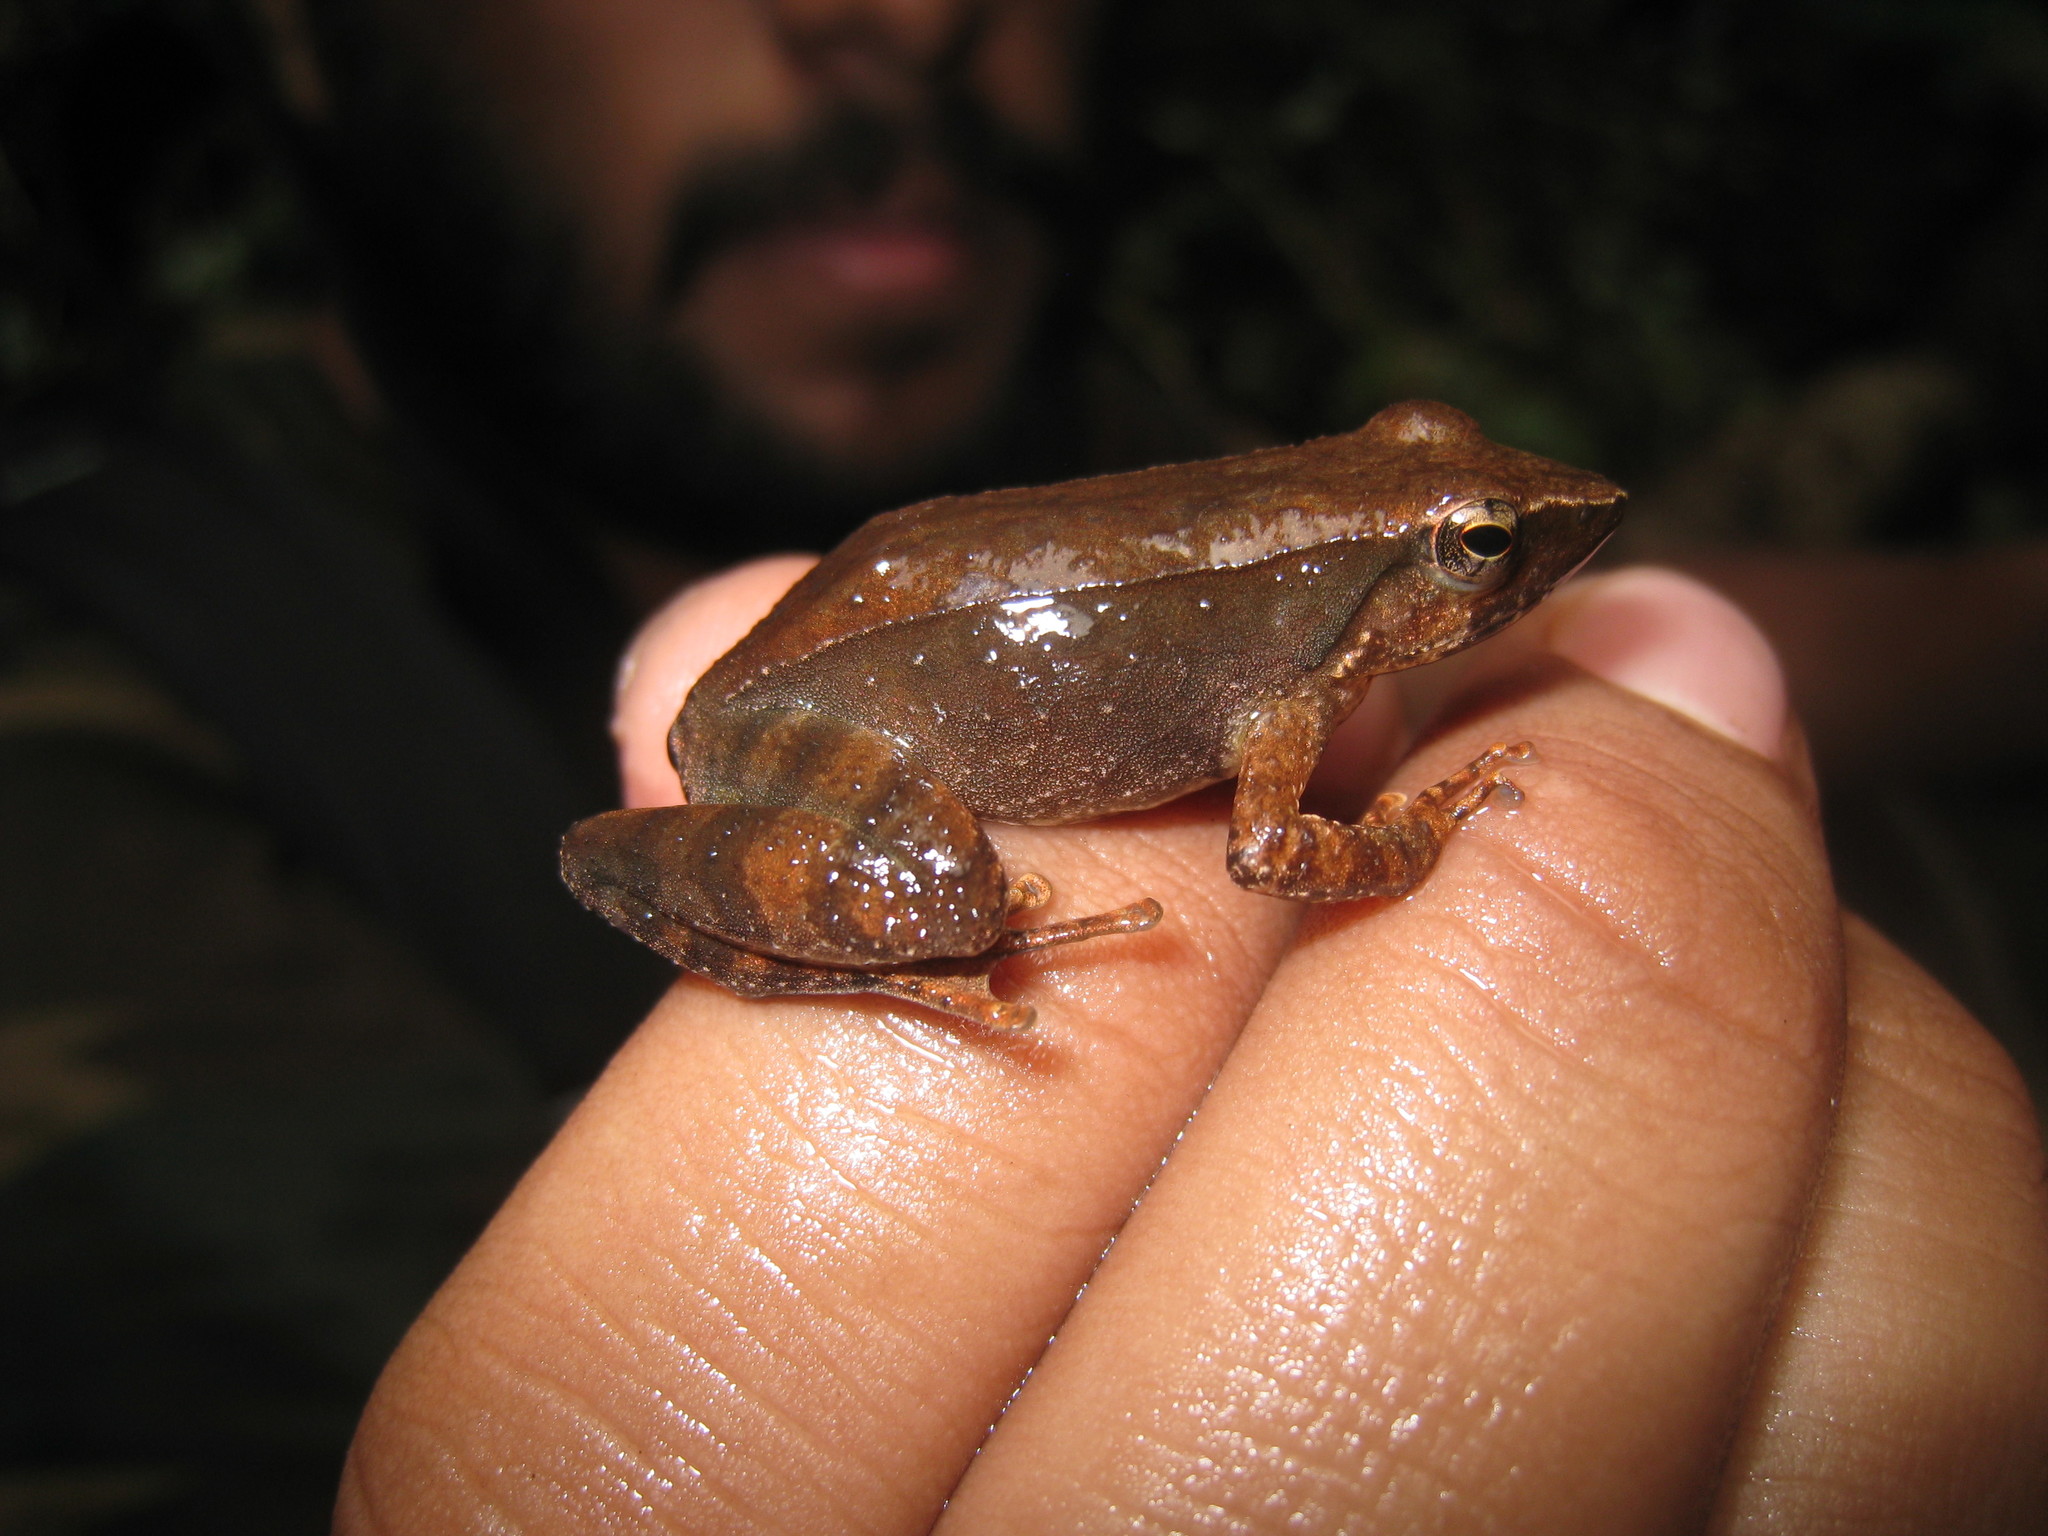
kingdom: Animalia
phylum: Chordata
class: Amphibia
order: Anura
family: Micrixalidae
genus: Micrixalus
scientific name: Micrixalus adonis
